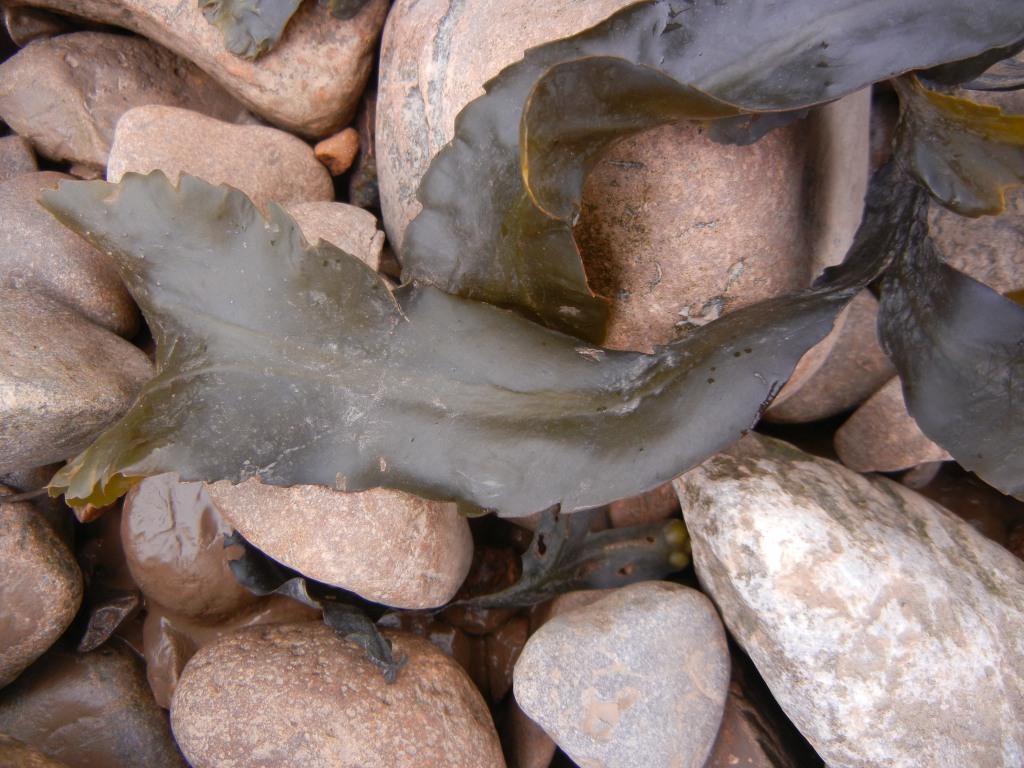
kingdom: Chromista
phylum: Ochrophyta
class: Phaeophyceae
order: Fucales
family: Fucaceae
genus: Fucus
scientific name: Fucus serratus
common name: Toothed wrack
